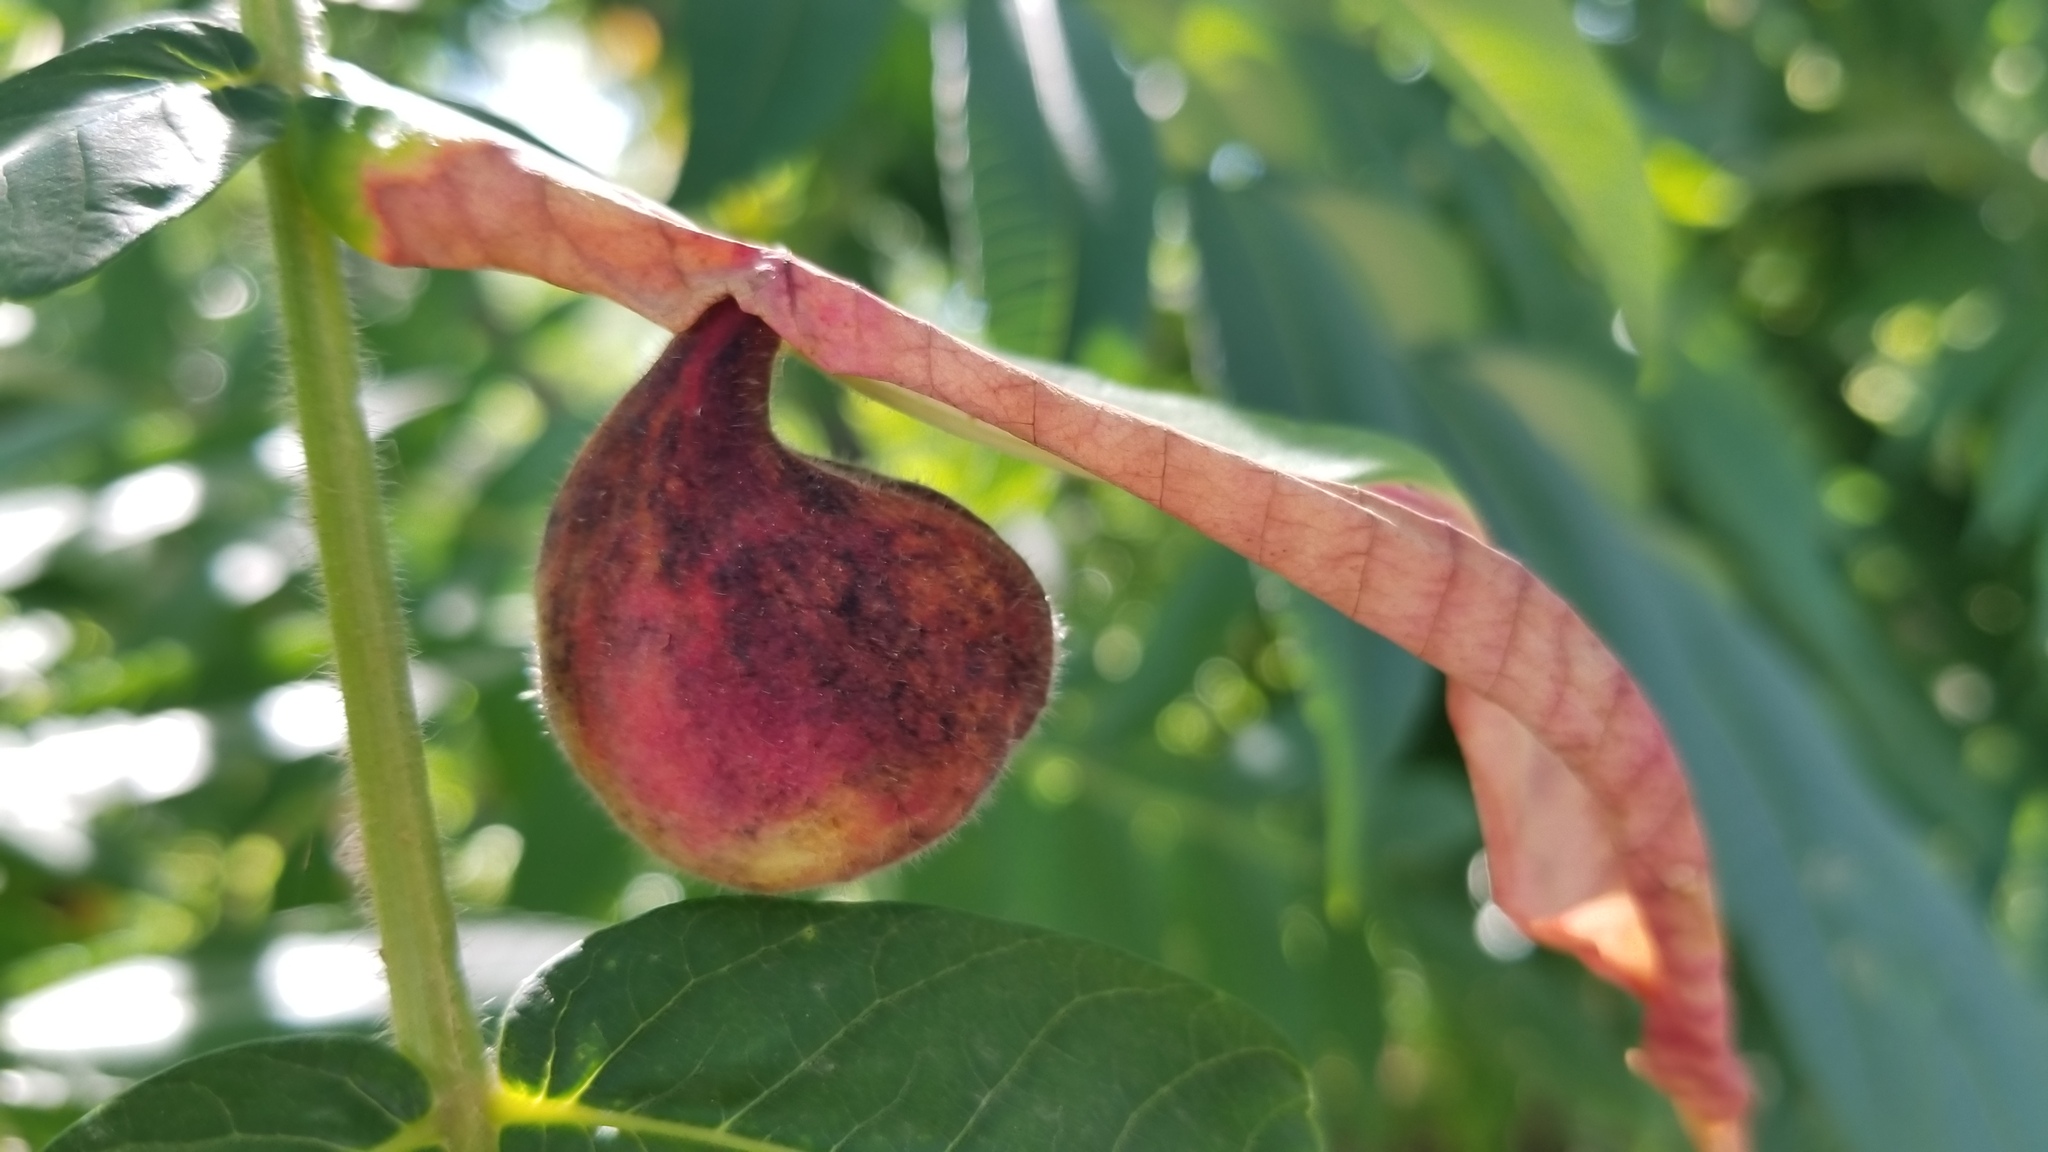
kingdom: Animalia
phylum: Arthropoda
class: Insecta
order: Hemiptera
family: Aphididae
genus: Melaphis
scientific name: Melaphis rhois
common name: Sumac gall aphid
